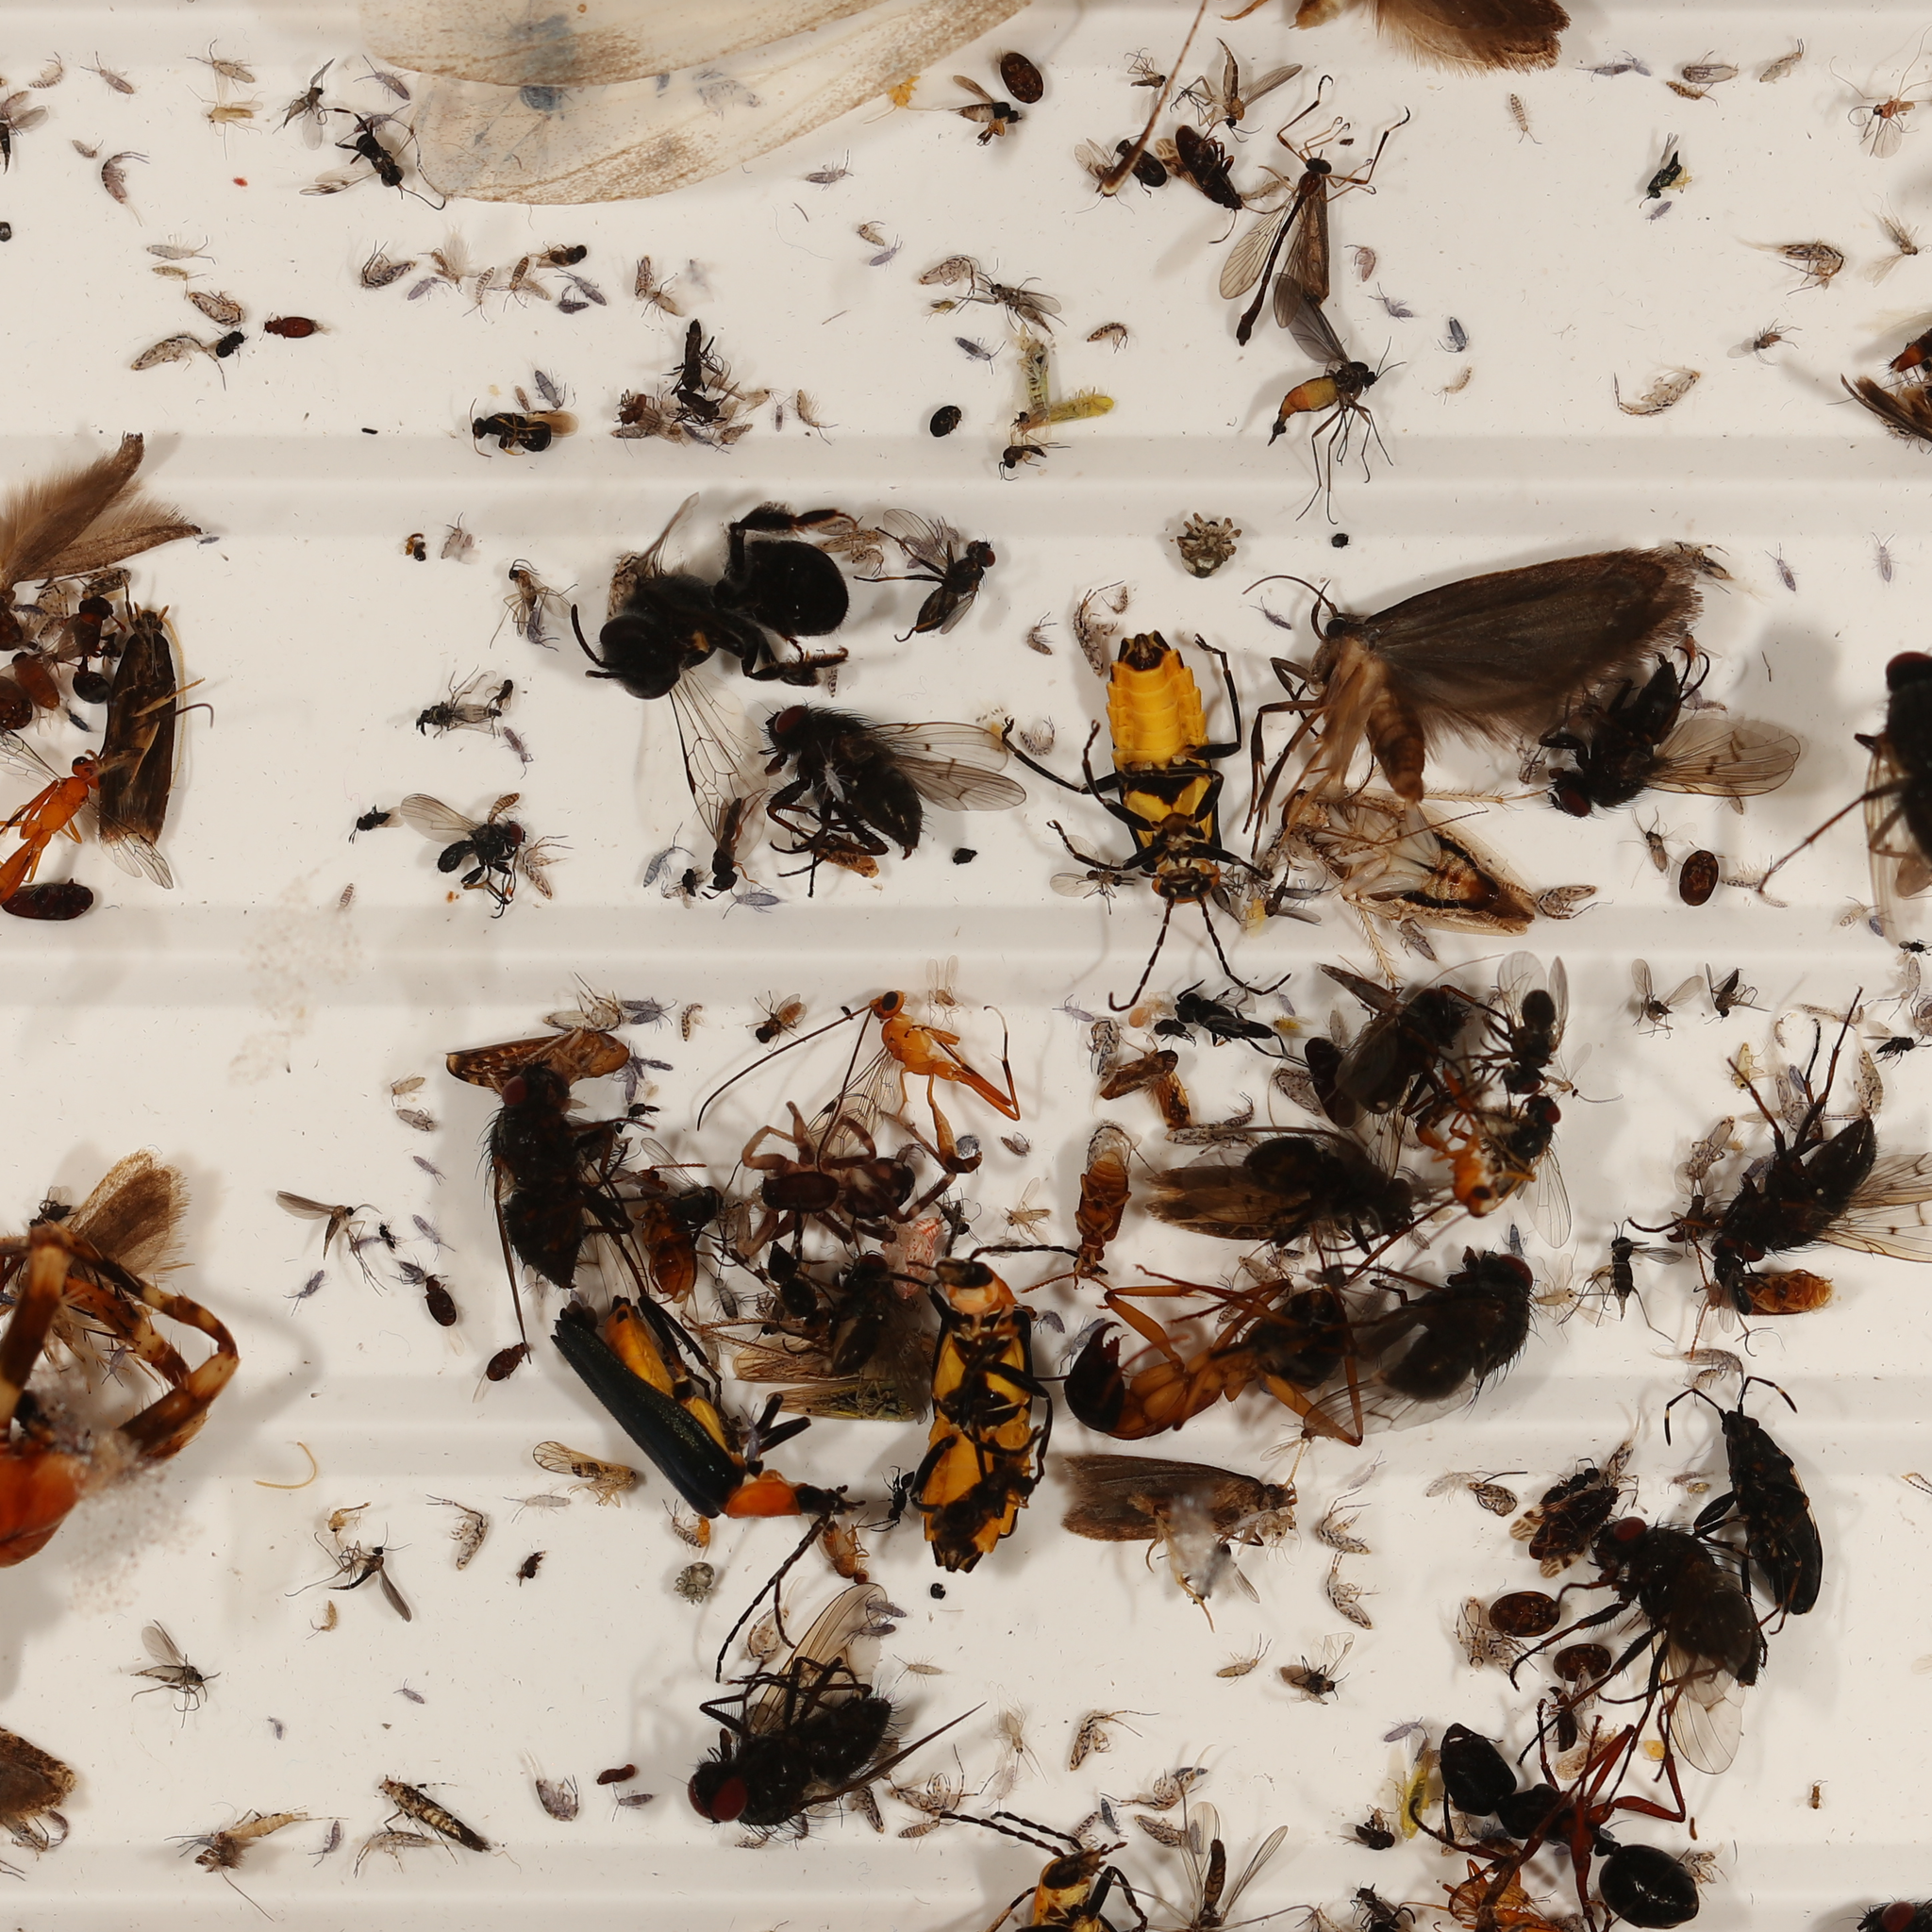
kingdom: Animalia
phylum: Arthropoda
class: Insecta
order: Coleoptera
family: Cantharidae
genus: Chauliognathus
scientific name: Chauliognathus
